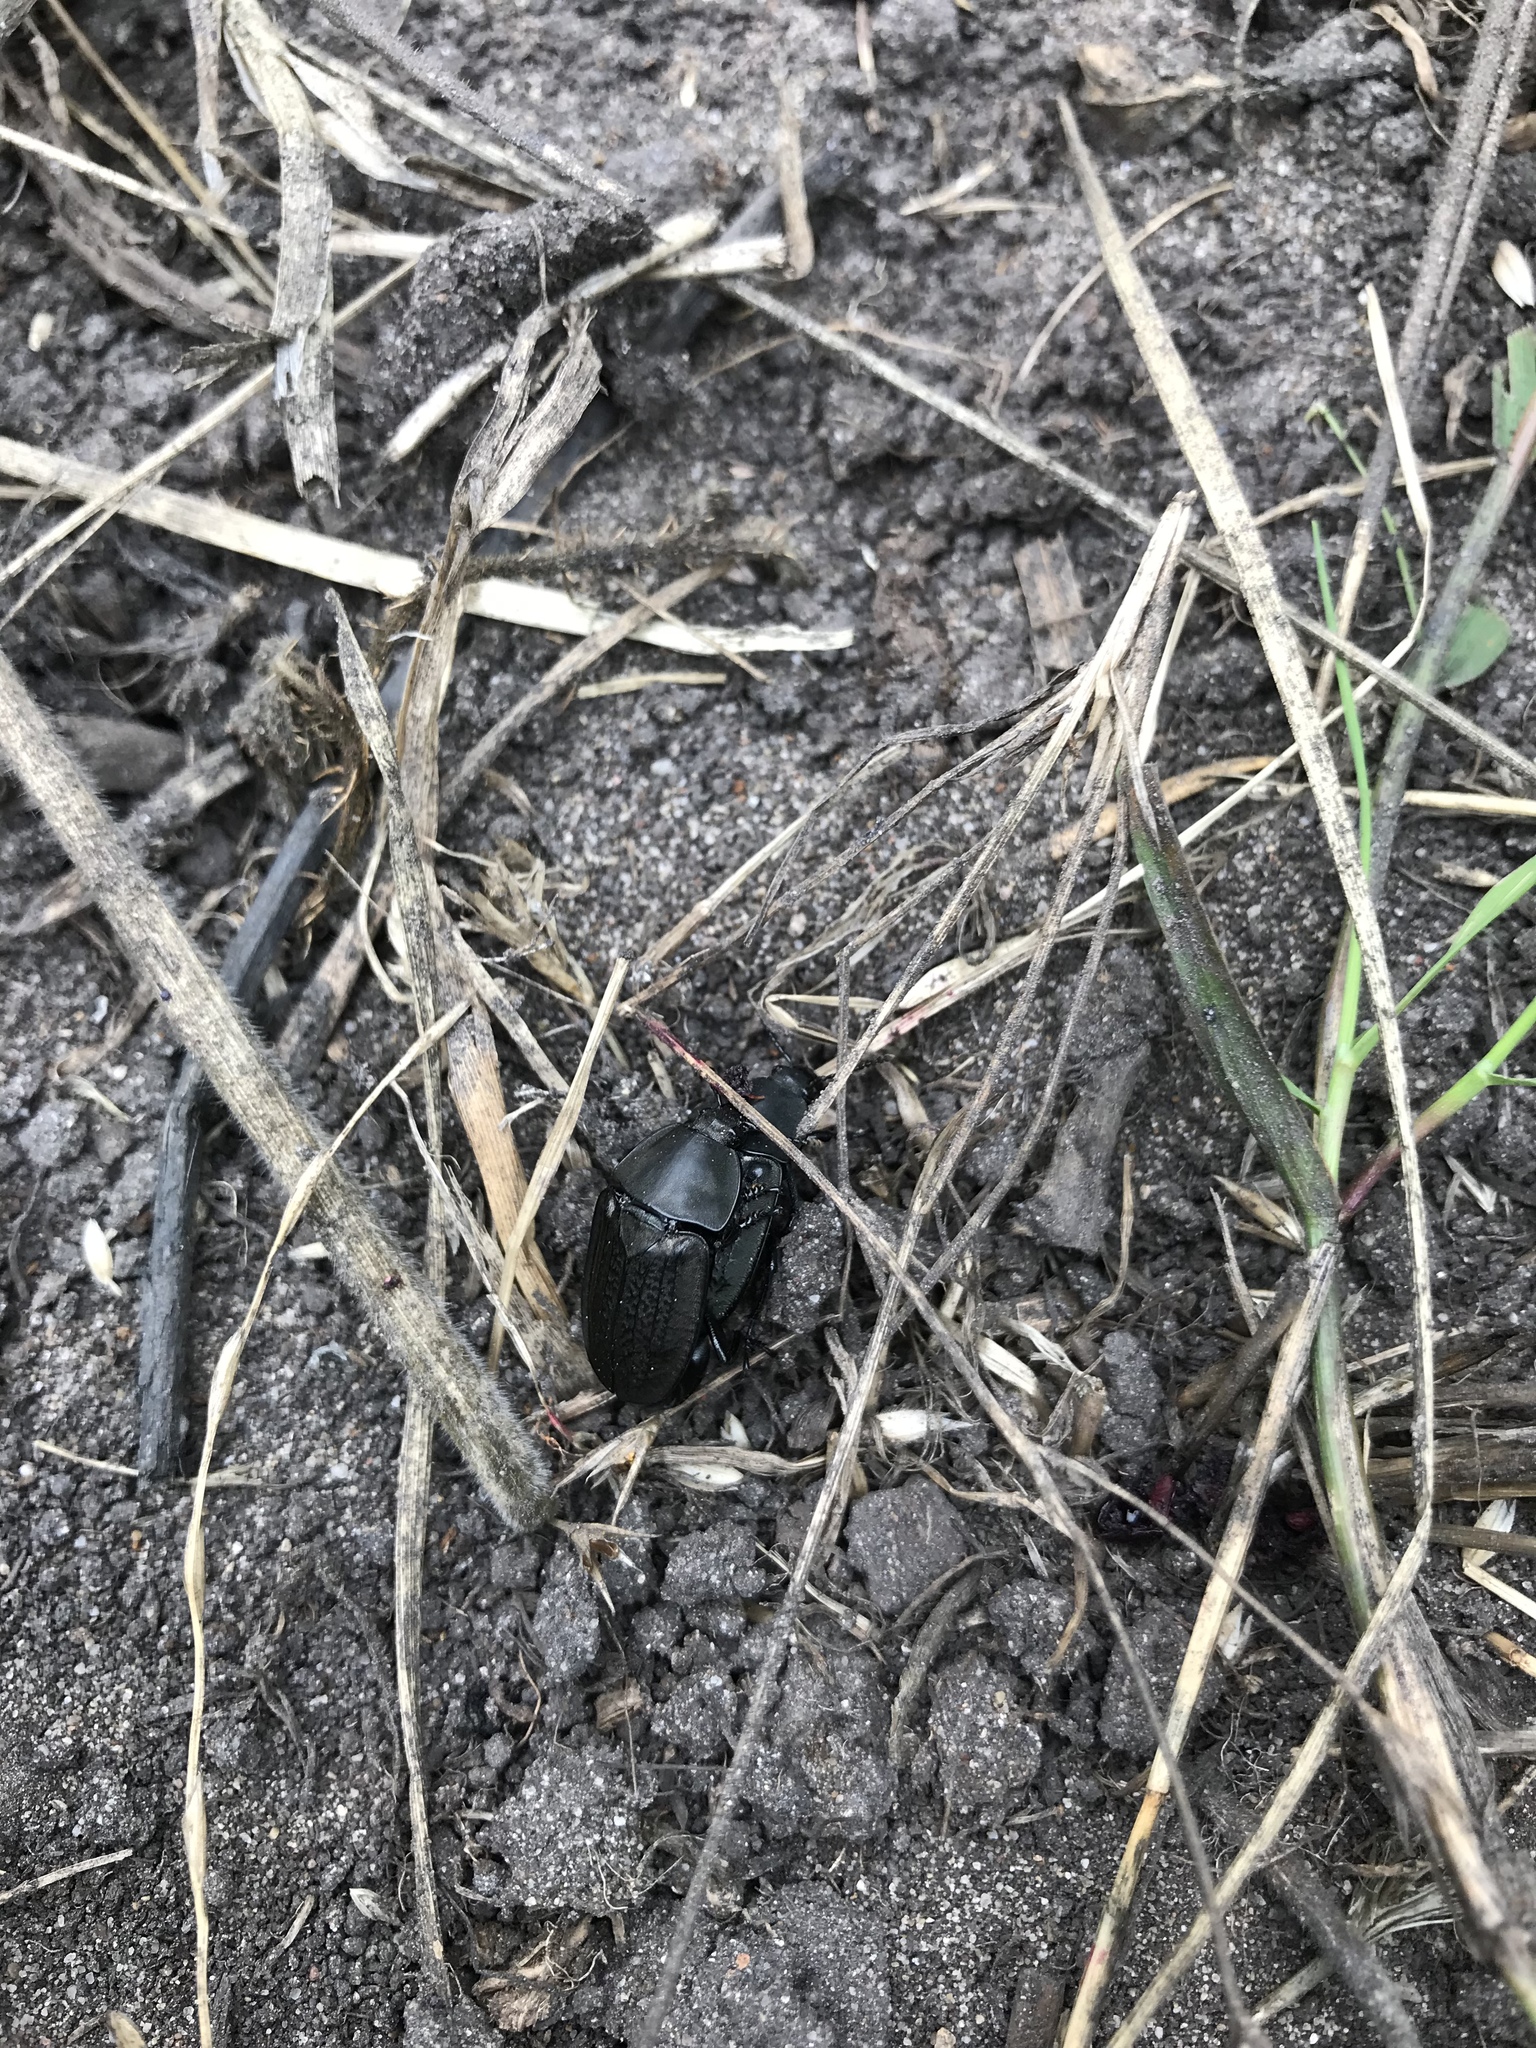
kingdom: Animalia
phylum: Arthropoda
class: Insecta
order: Coleoptera
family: Staphylinidae
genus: Heterosilpha
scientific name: Heterosilpha ramosa
